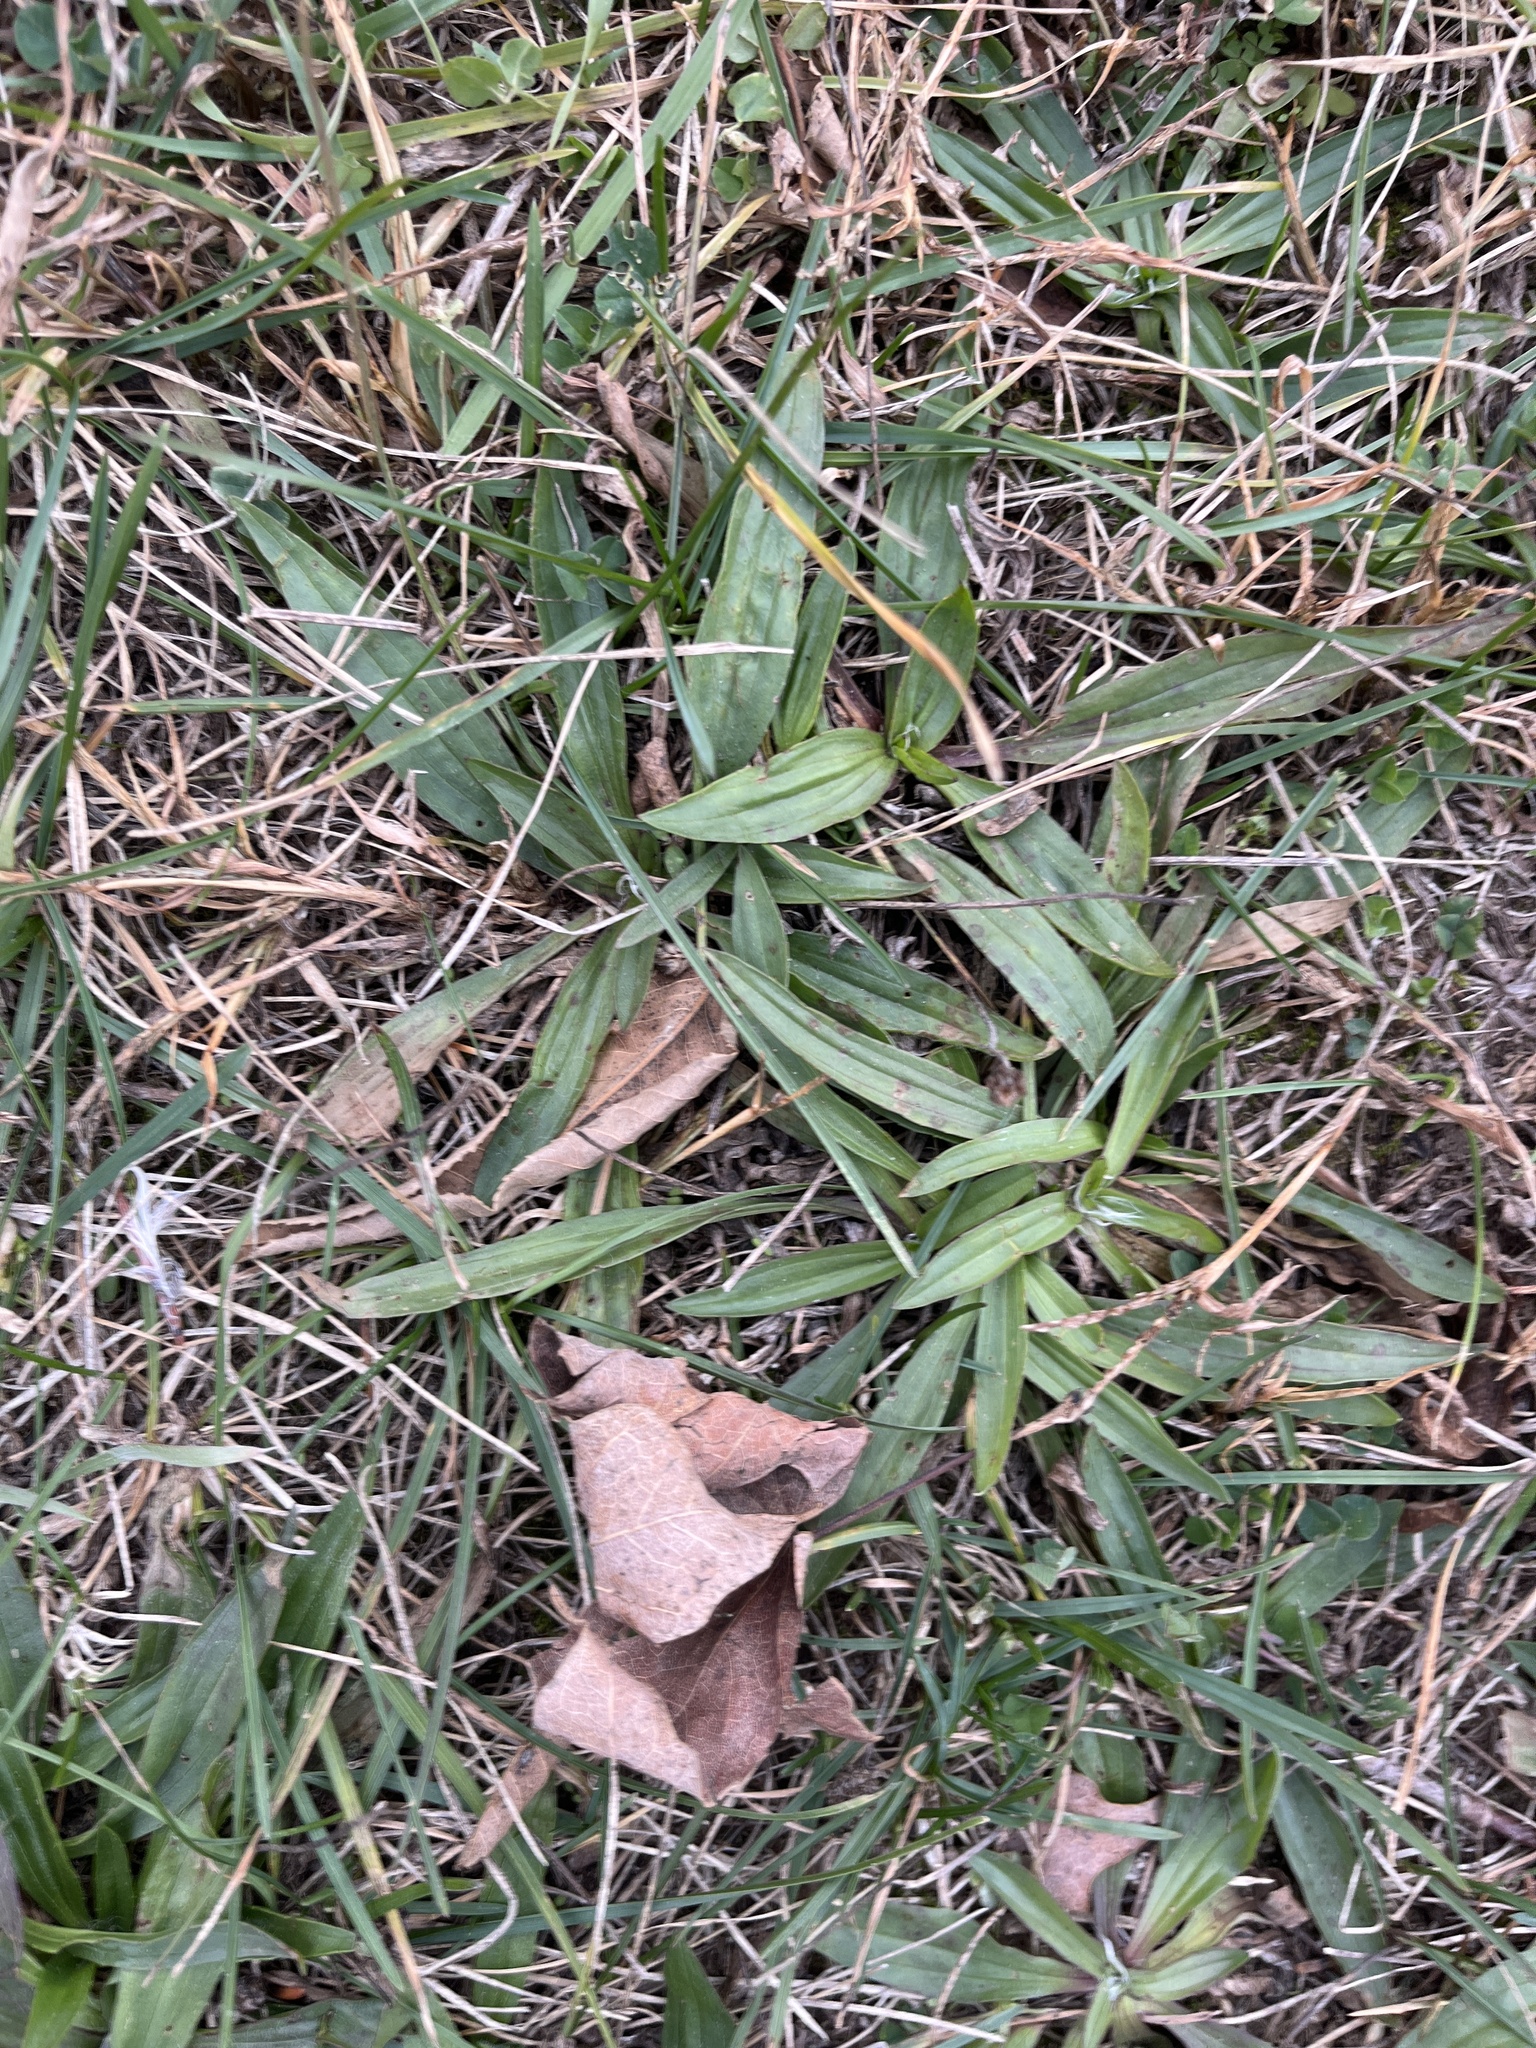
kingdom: Plantae
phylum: Tracheophyta
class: Magnoliopsida
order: Lamiales
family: Plantaginaceae
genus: Plantago
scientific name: Plantago lanceolata
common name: Ribwort plantain
